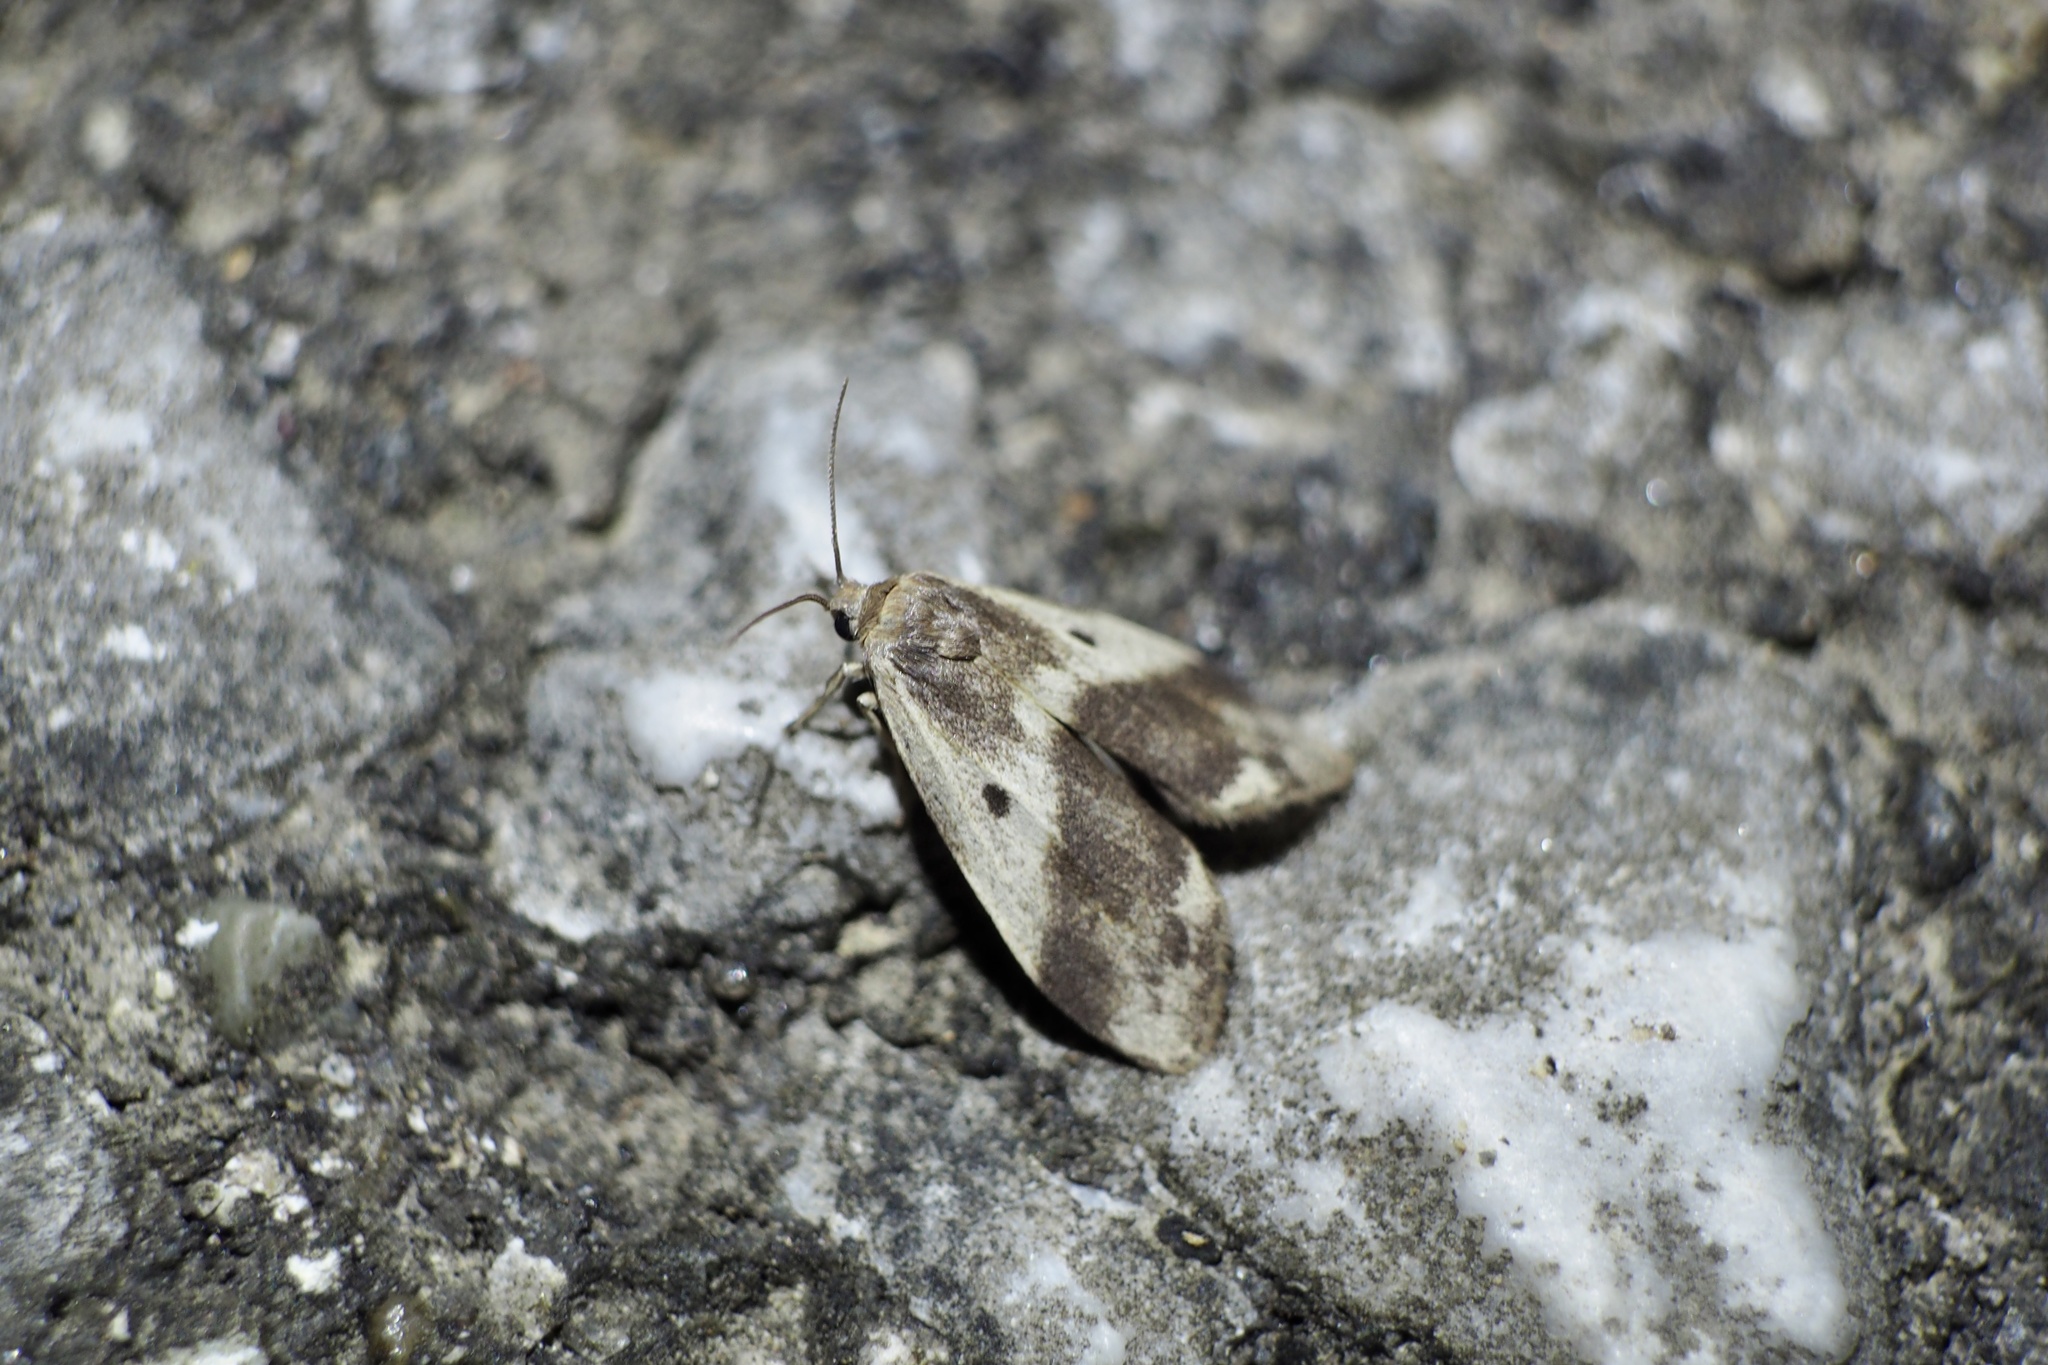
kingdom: Animalia
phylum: Arthropoda
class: Insecta
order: Lepidoptera
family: Erebidae
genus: Philenora
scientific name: Philenora latifasciata
